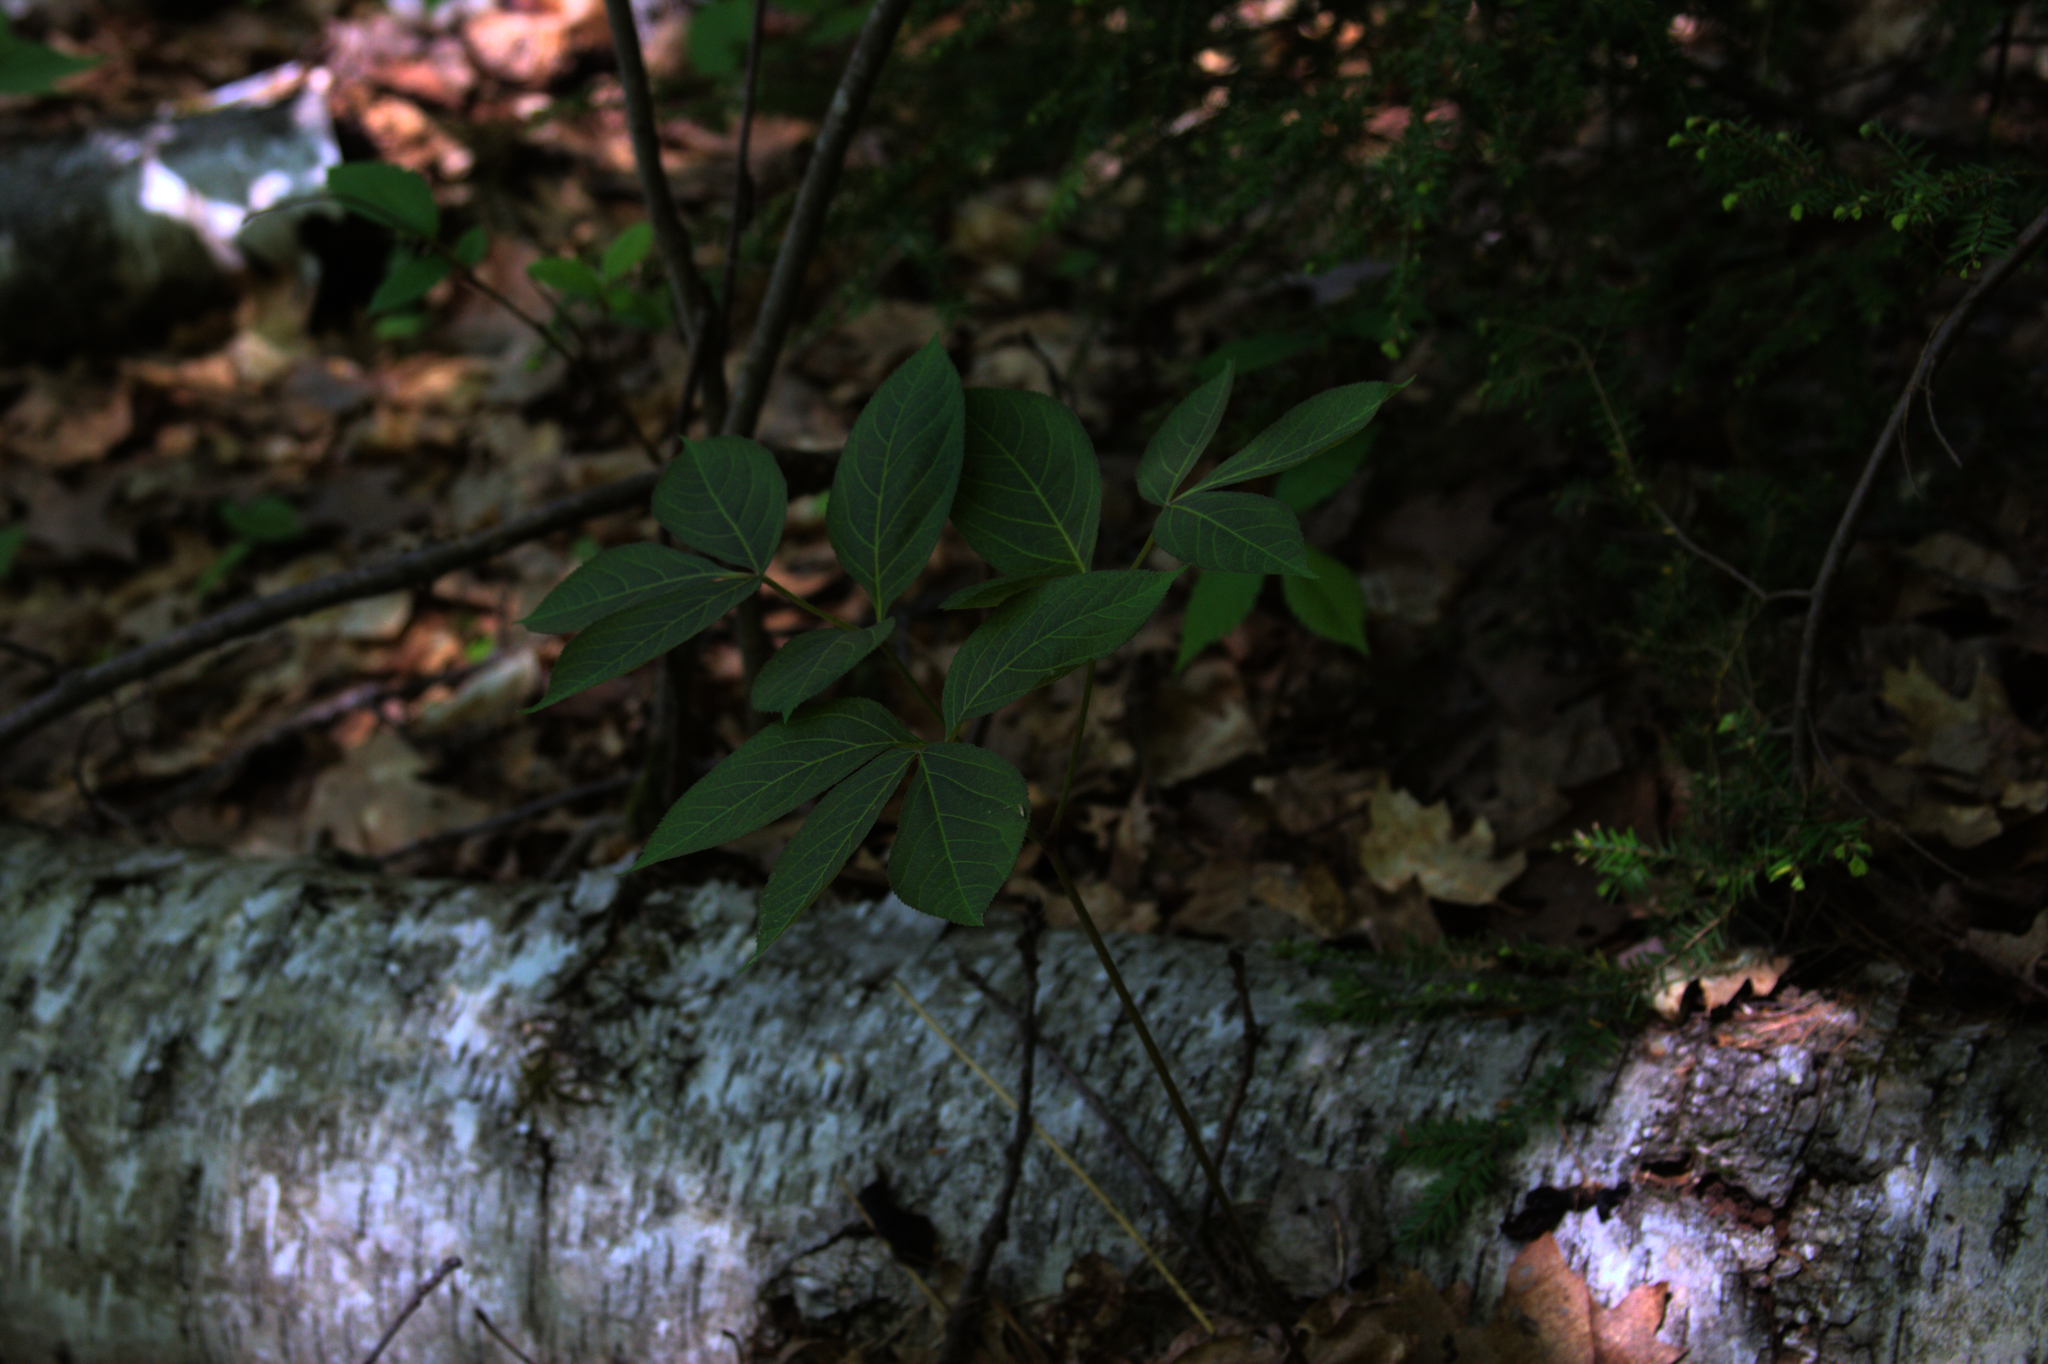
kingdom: Plantae
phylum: Tracheophyta
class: Magnoliopsida
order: Apiales
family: Araliaceae
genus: Aralia
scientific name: Aralia nudicaulis
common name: Wild sarsaparilla
